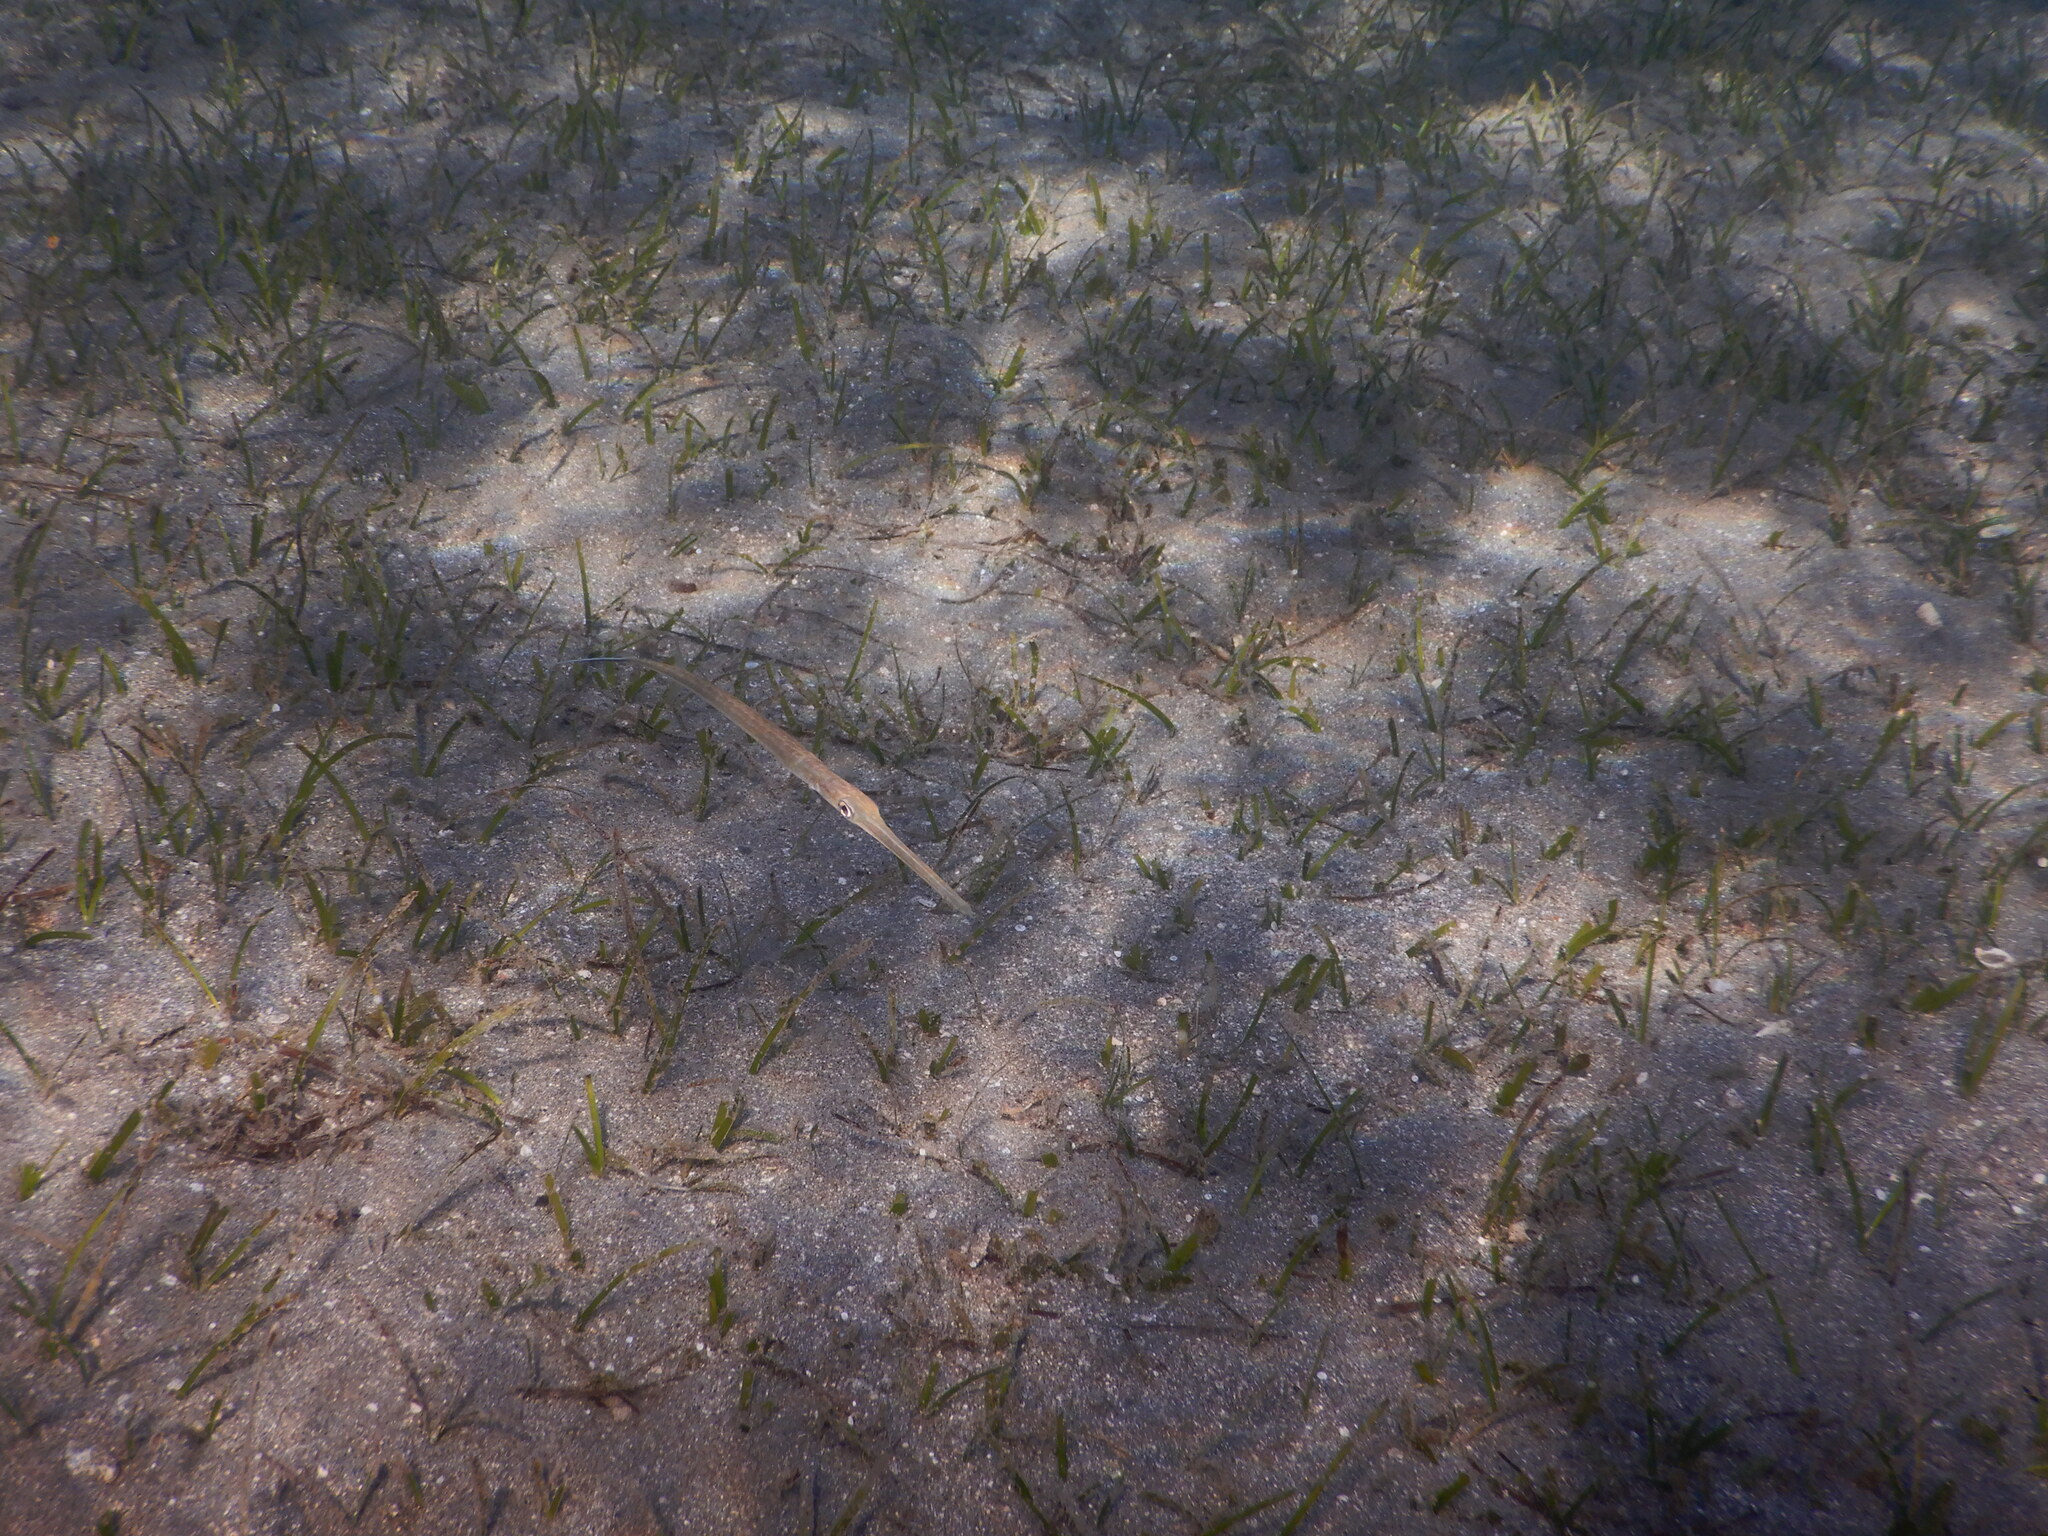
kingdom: Animalia
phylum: Chordata
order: Syngnathiformes
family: Fistulariidae
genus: Fistularia
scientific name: Fistularia commersonii
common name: Bluespotted cornetfish
